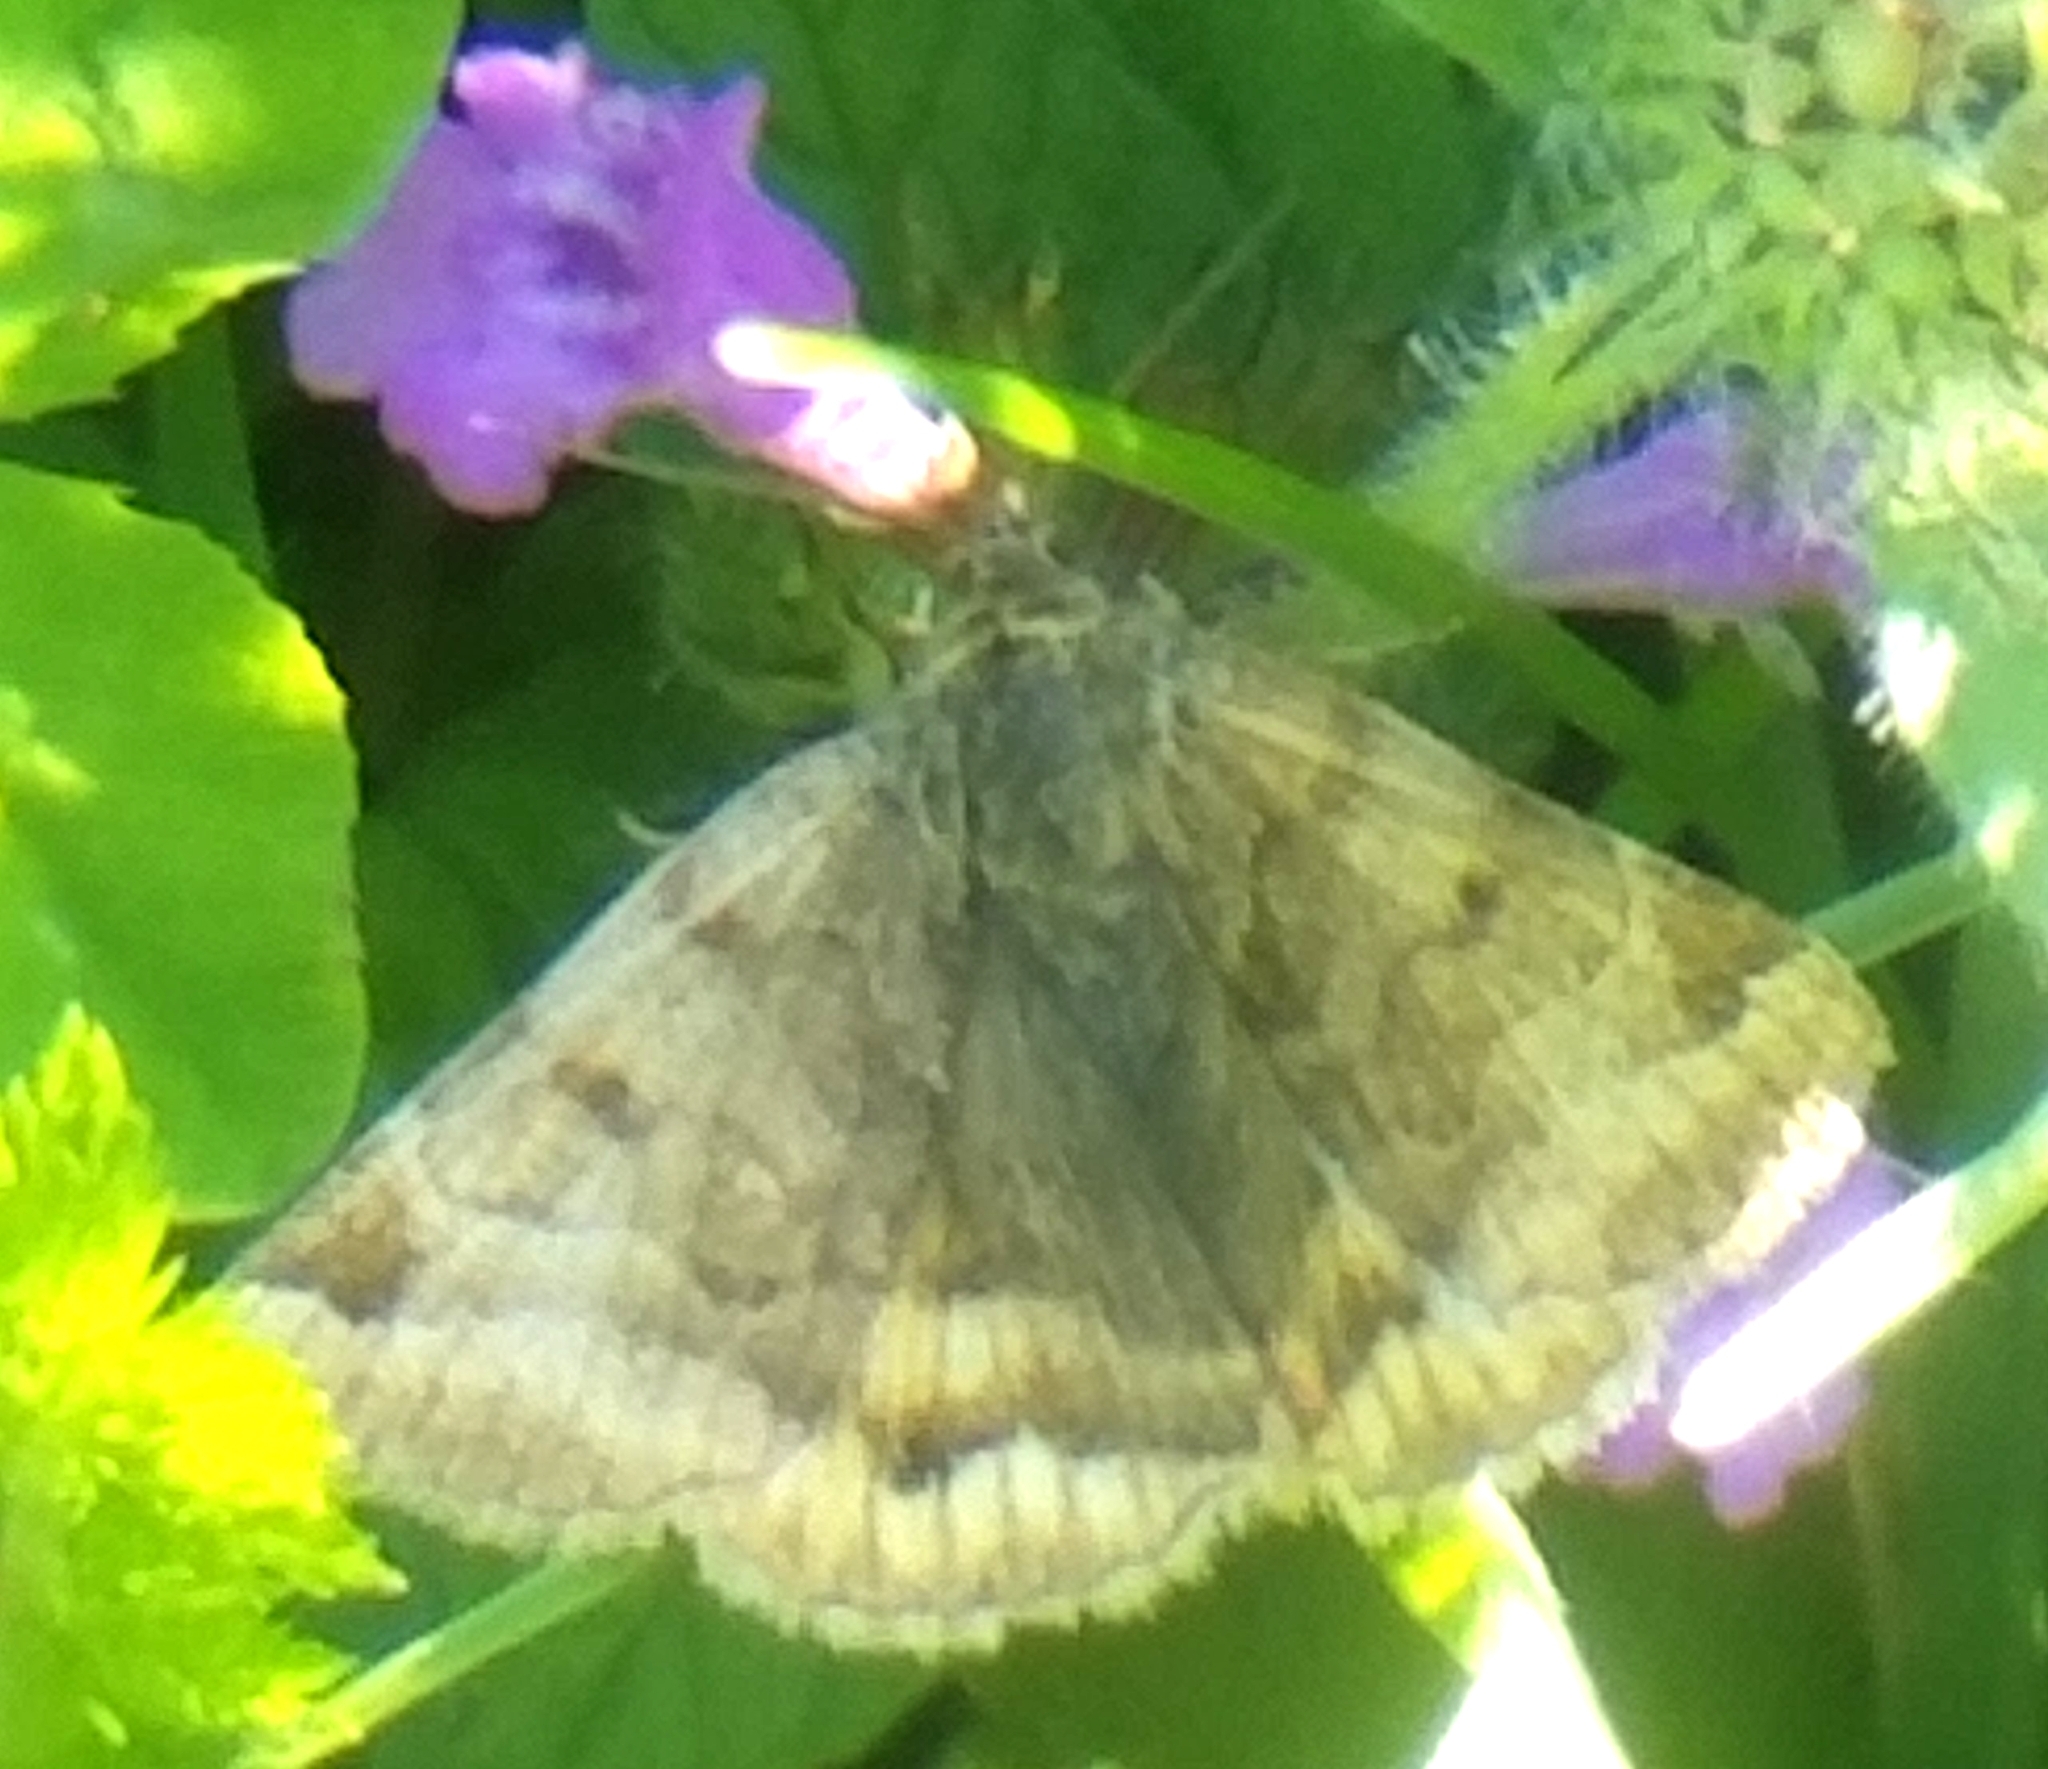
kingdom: Animalia
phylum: Arthropoda
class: Insecta
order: Lepidoptera
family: Erebidae
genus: Euclidia
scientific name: Euclidia glyphica
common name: Burnet companion
